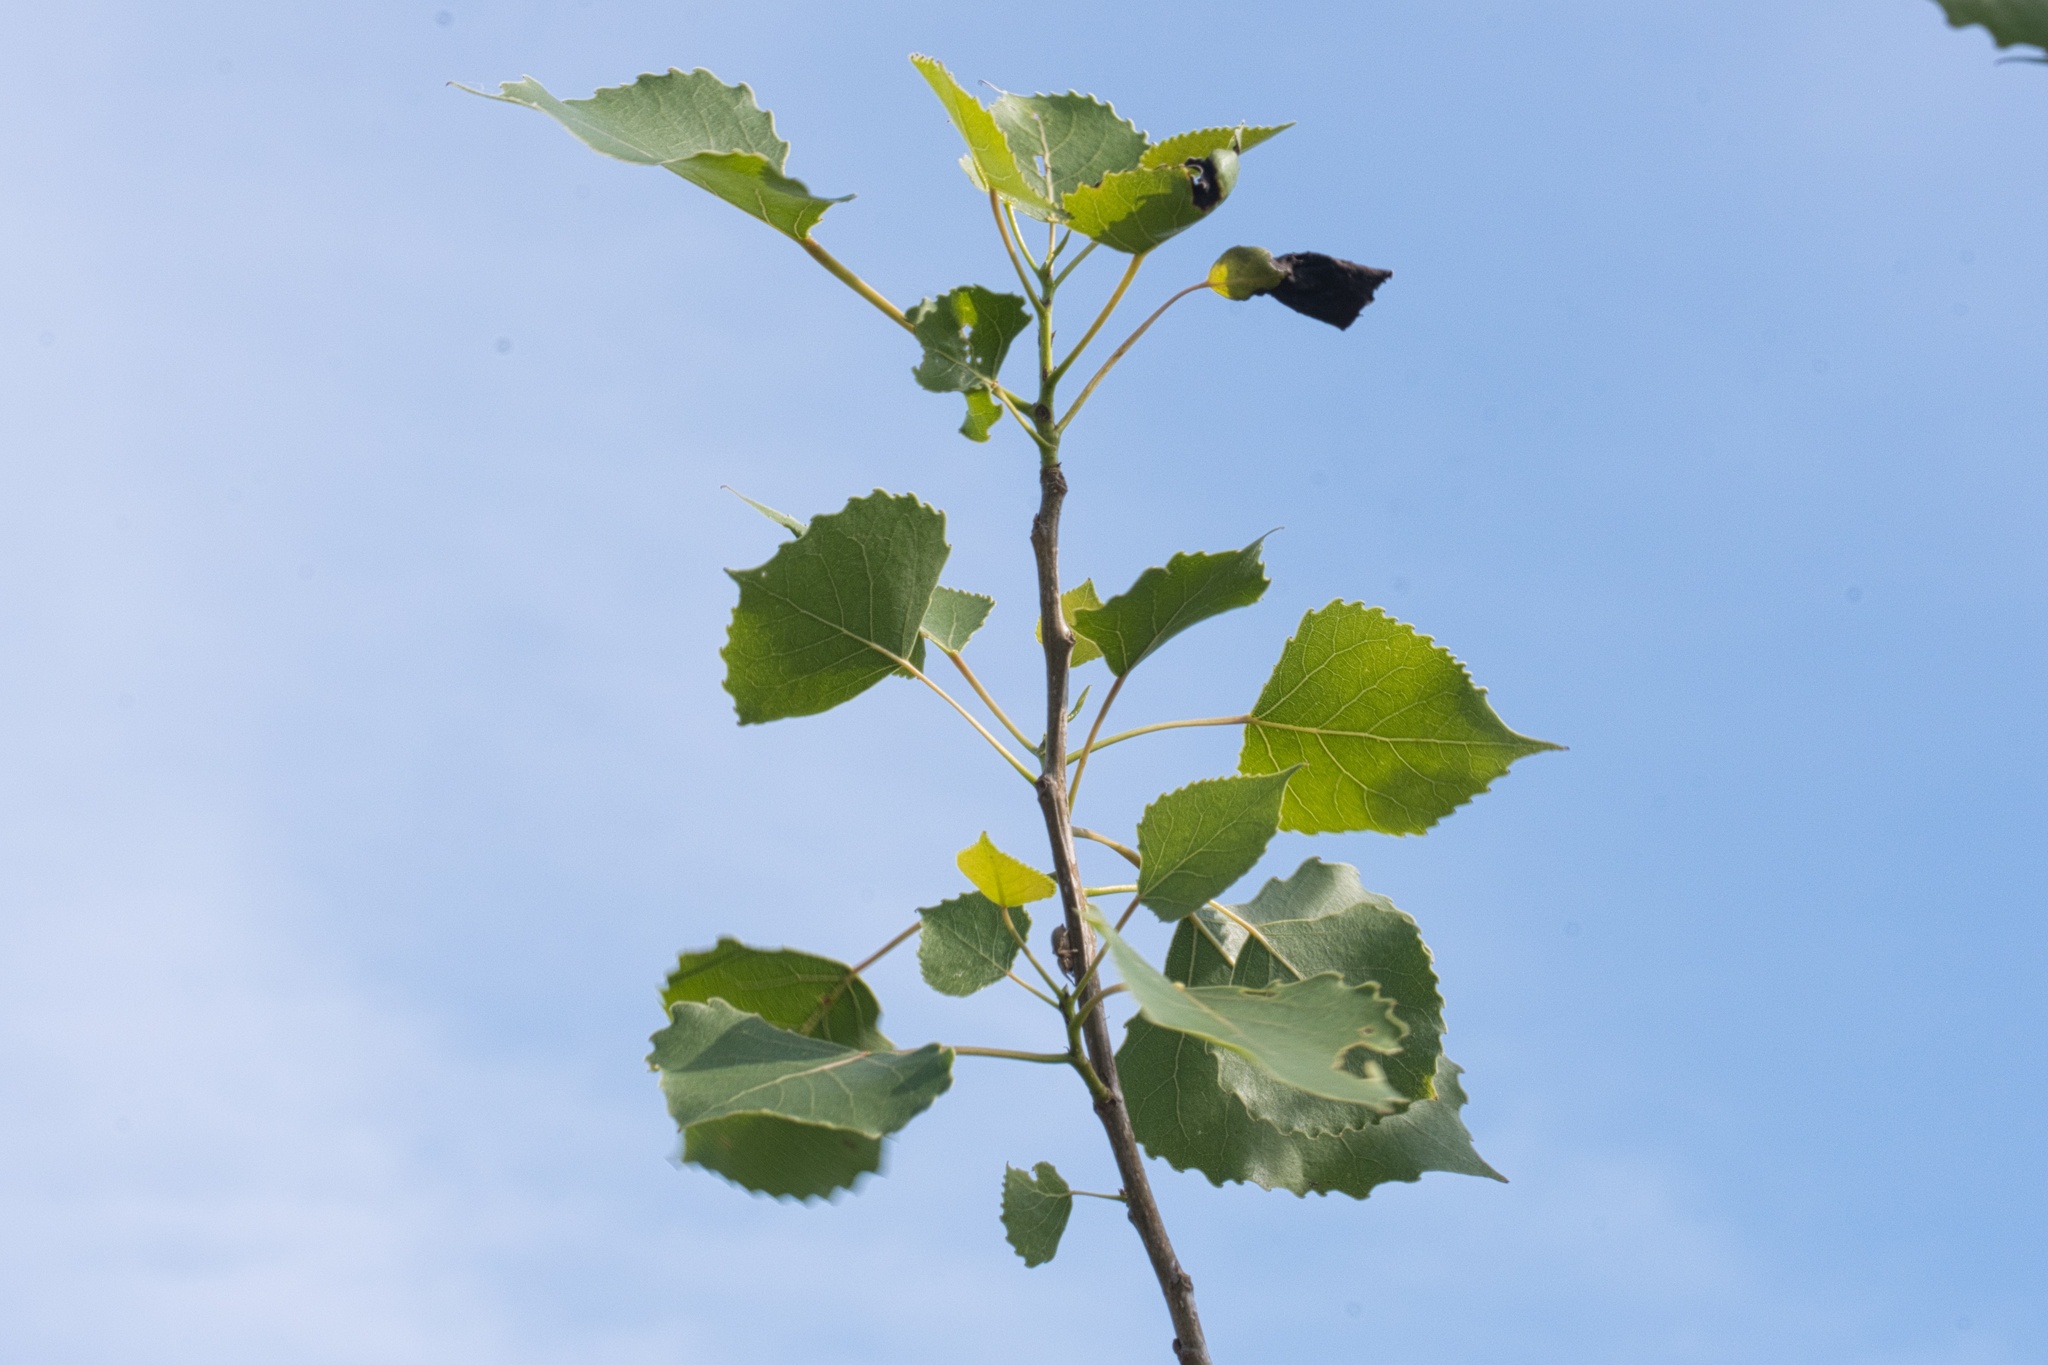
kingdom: Plantae
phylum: Tracheophyta
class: Magnoliopsida
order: Malpighiales
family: Salicaceae
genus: Populus
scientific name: Populus deltoides
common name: Eastern cottonwood
